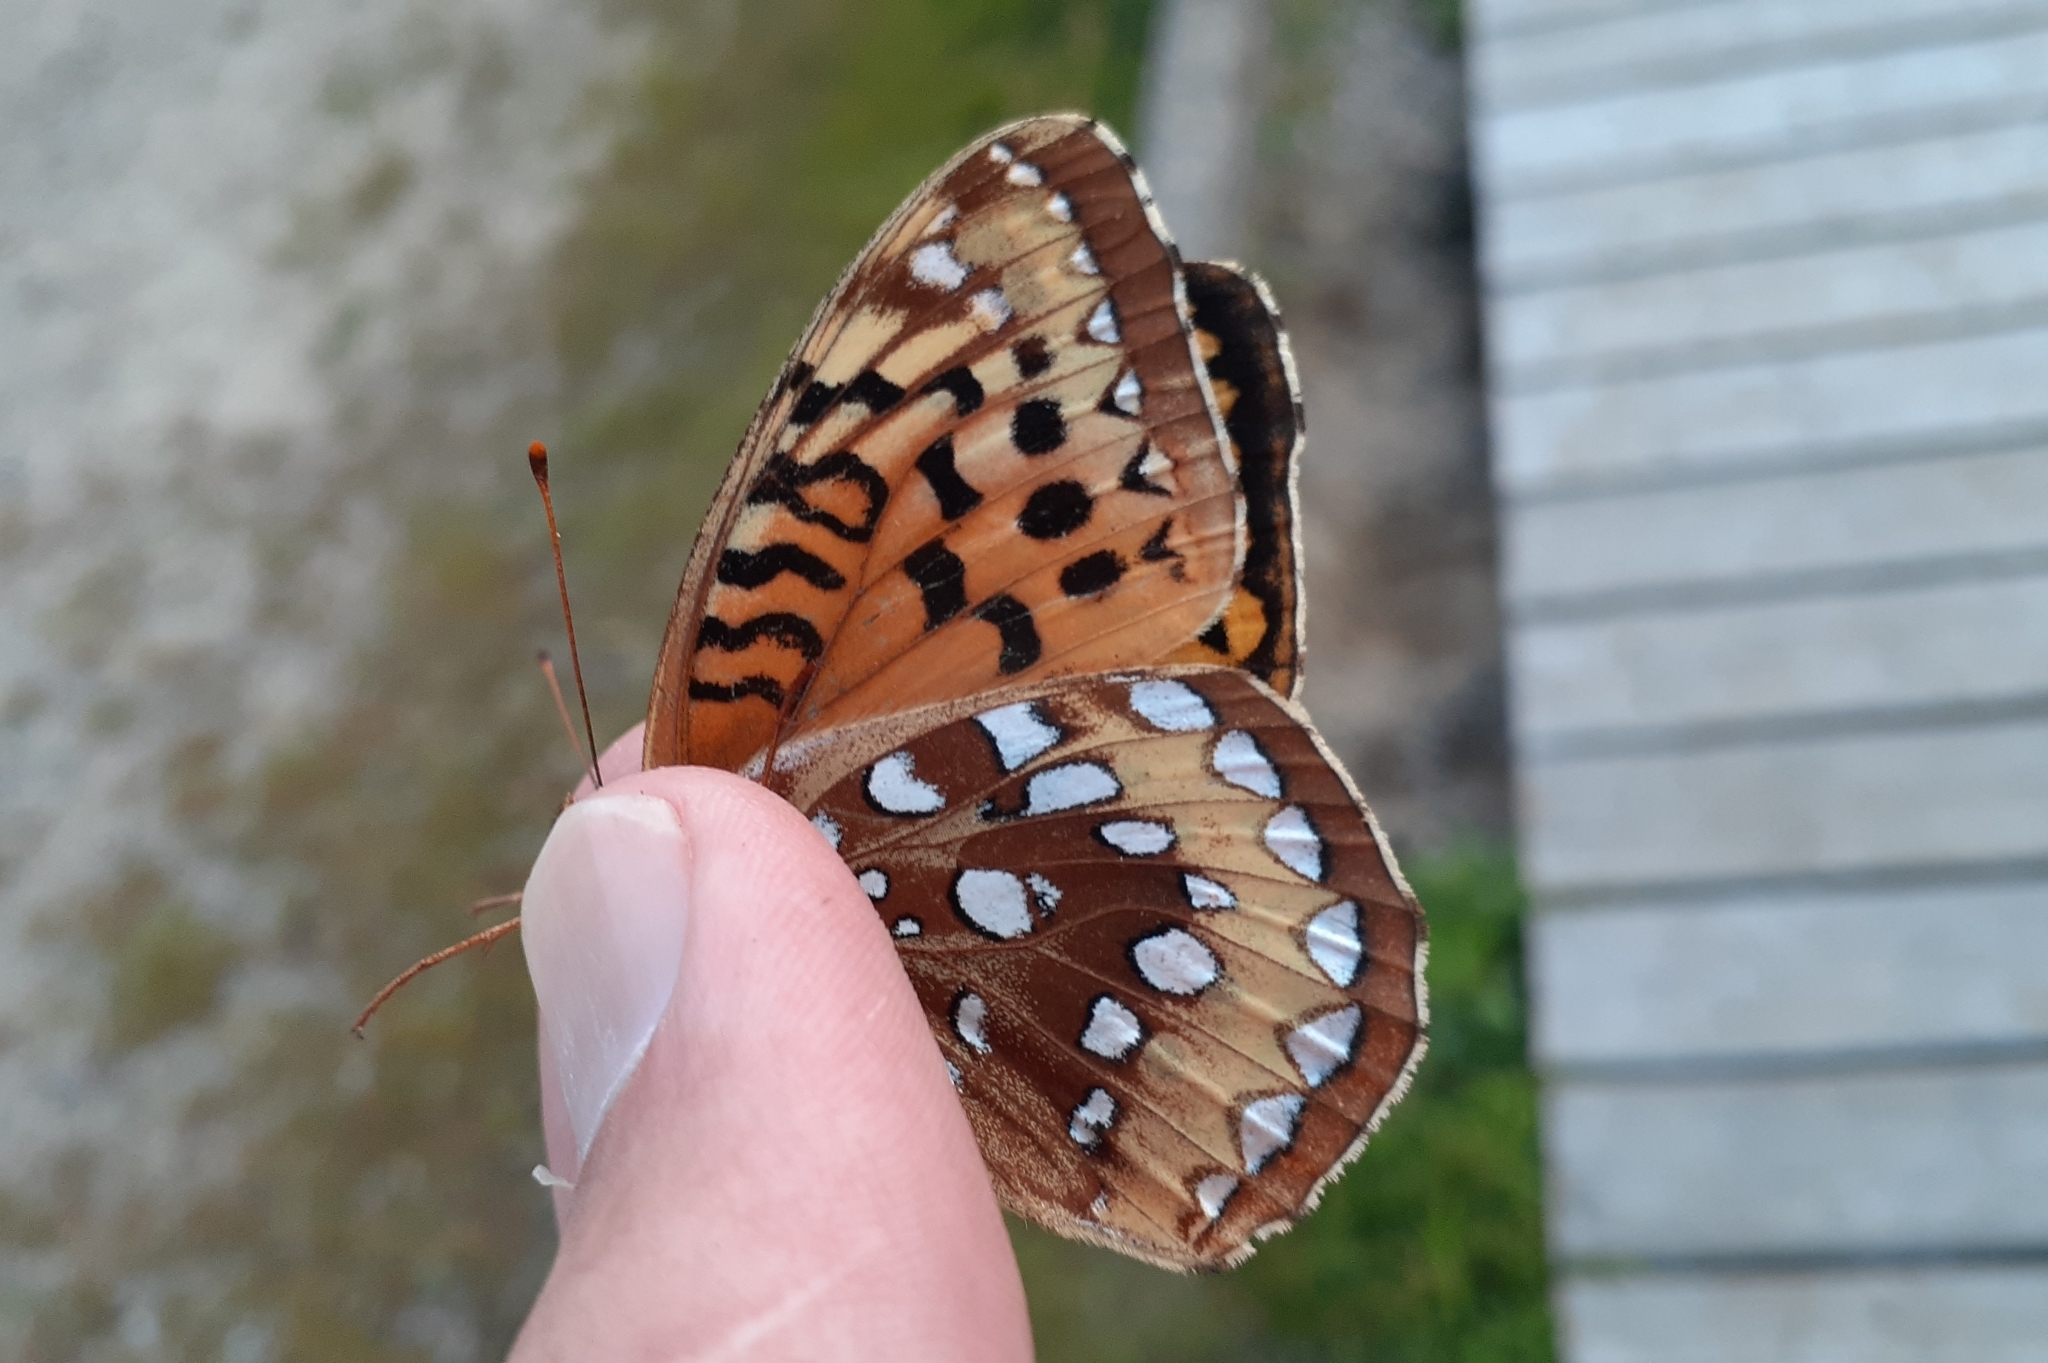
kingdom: Animalia
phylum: Arthropoda
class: Insecta
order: Lepidoptera
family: Nymphalidae
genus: Speyeria
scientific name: Speyeria cybele
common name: Great spangled fritillary
